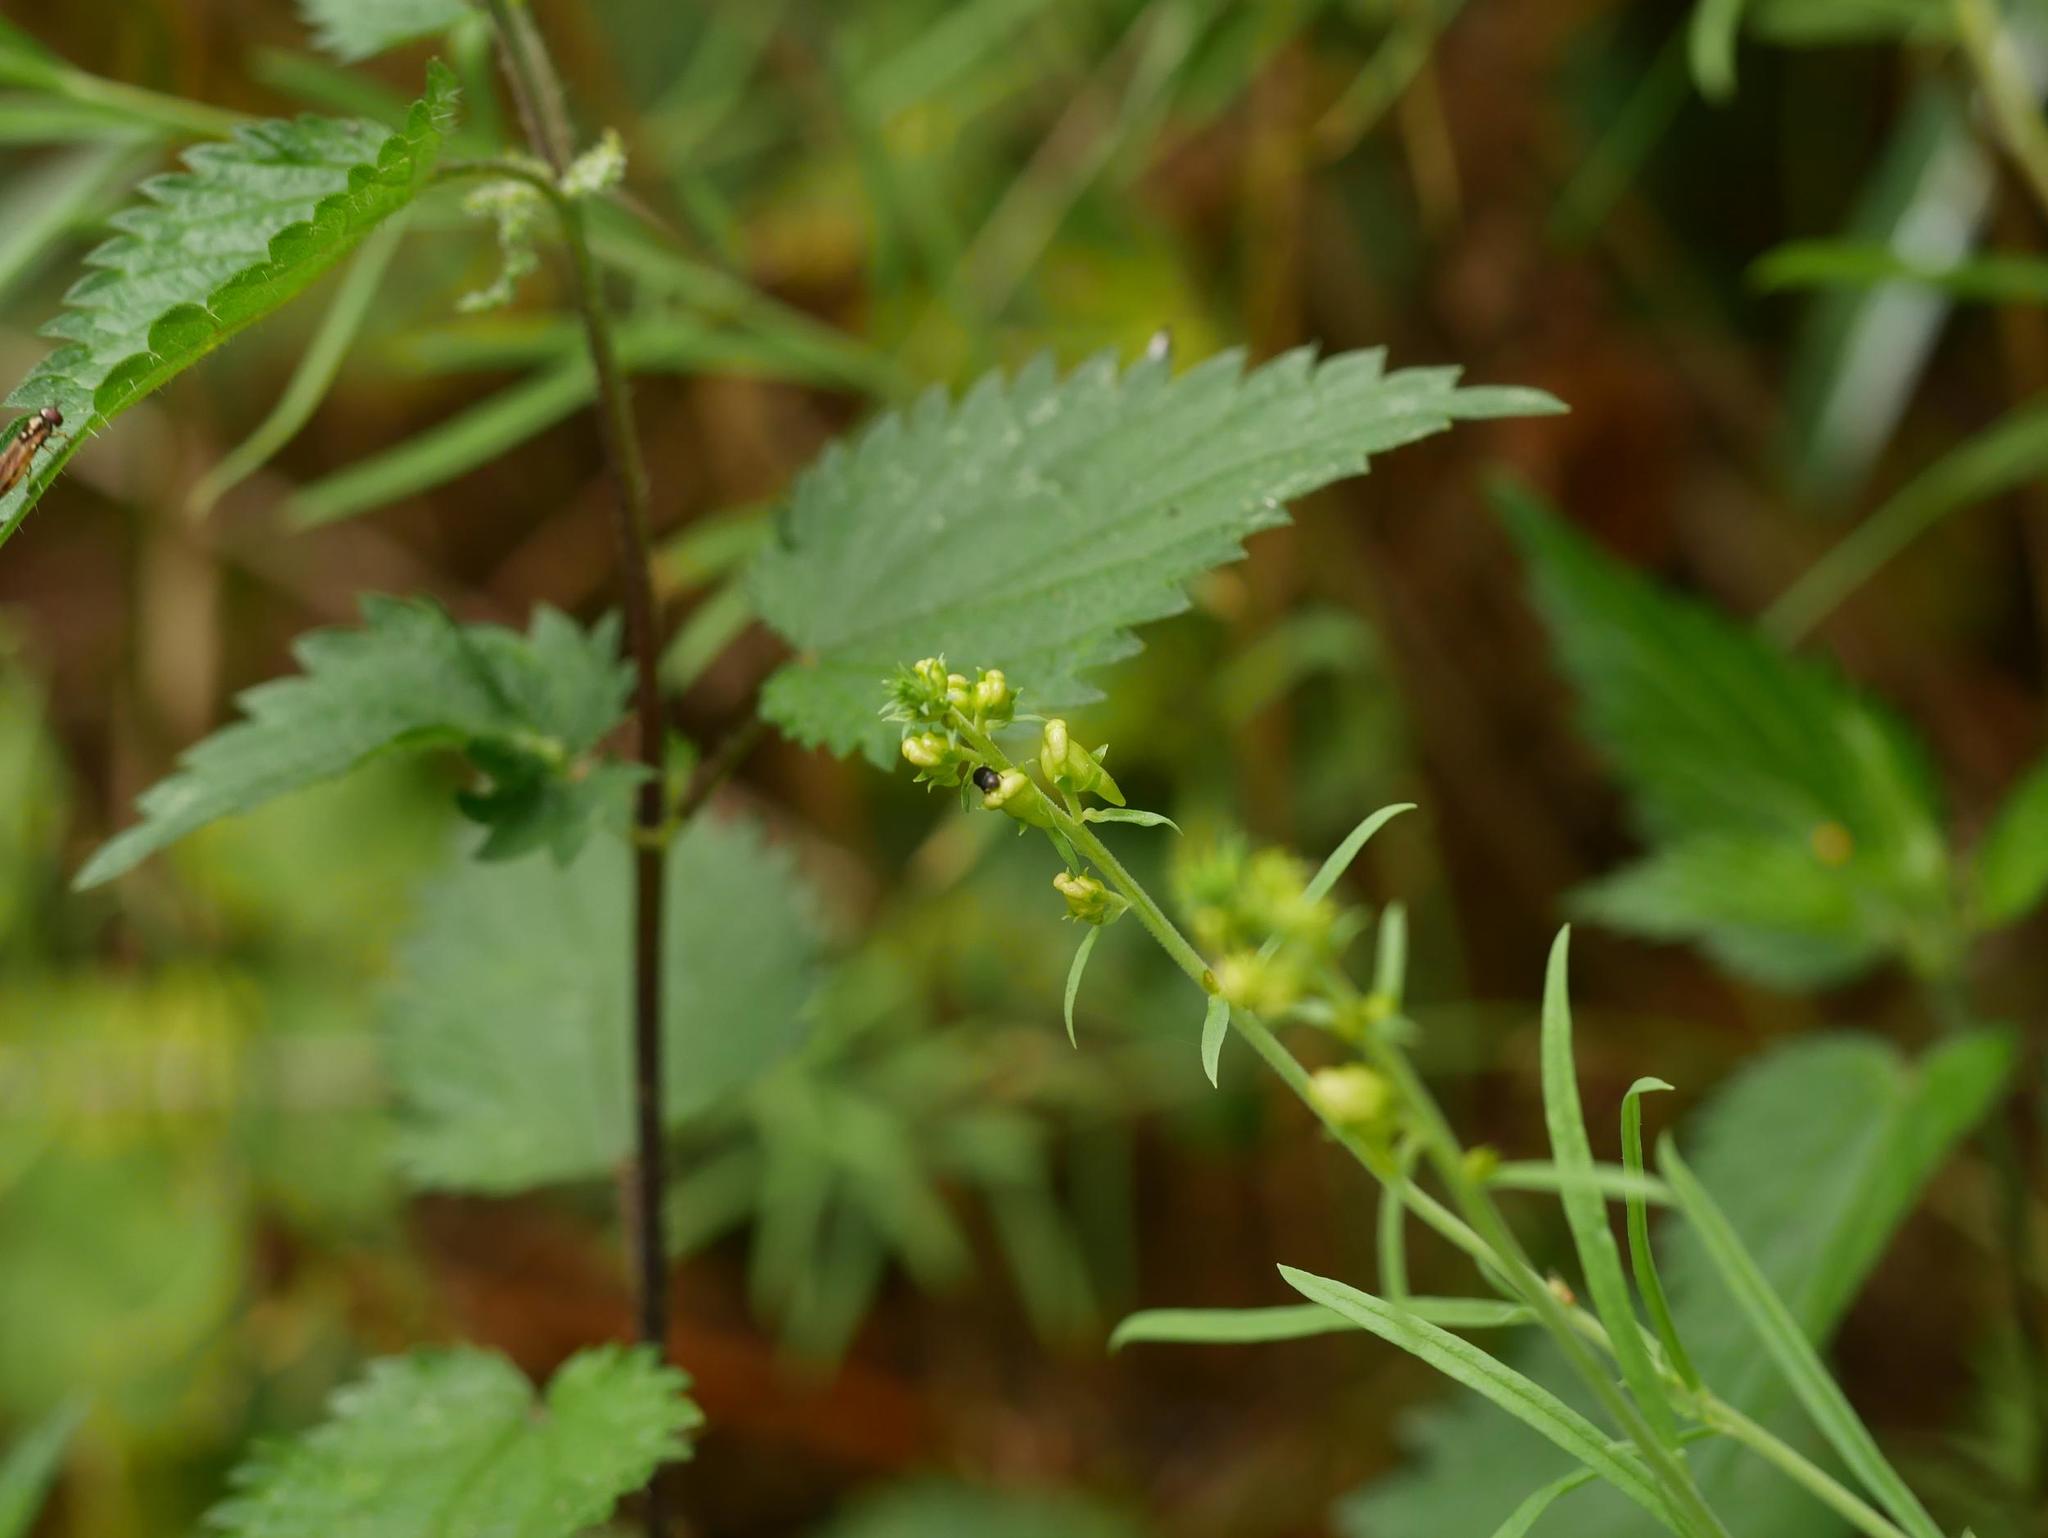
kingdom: Plantae
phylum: Tracheophyta
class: Magnoliopsida
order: Lamiales
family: Plantaginaceae
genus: Linaria
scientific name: Linaria vulgaris
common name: Butter and eggs
